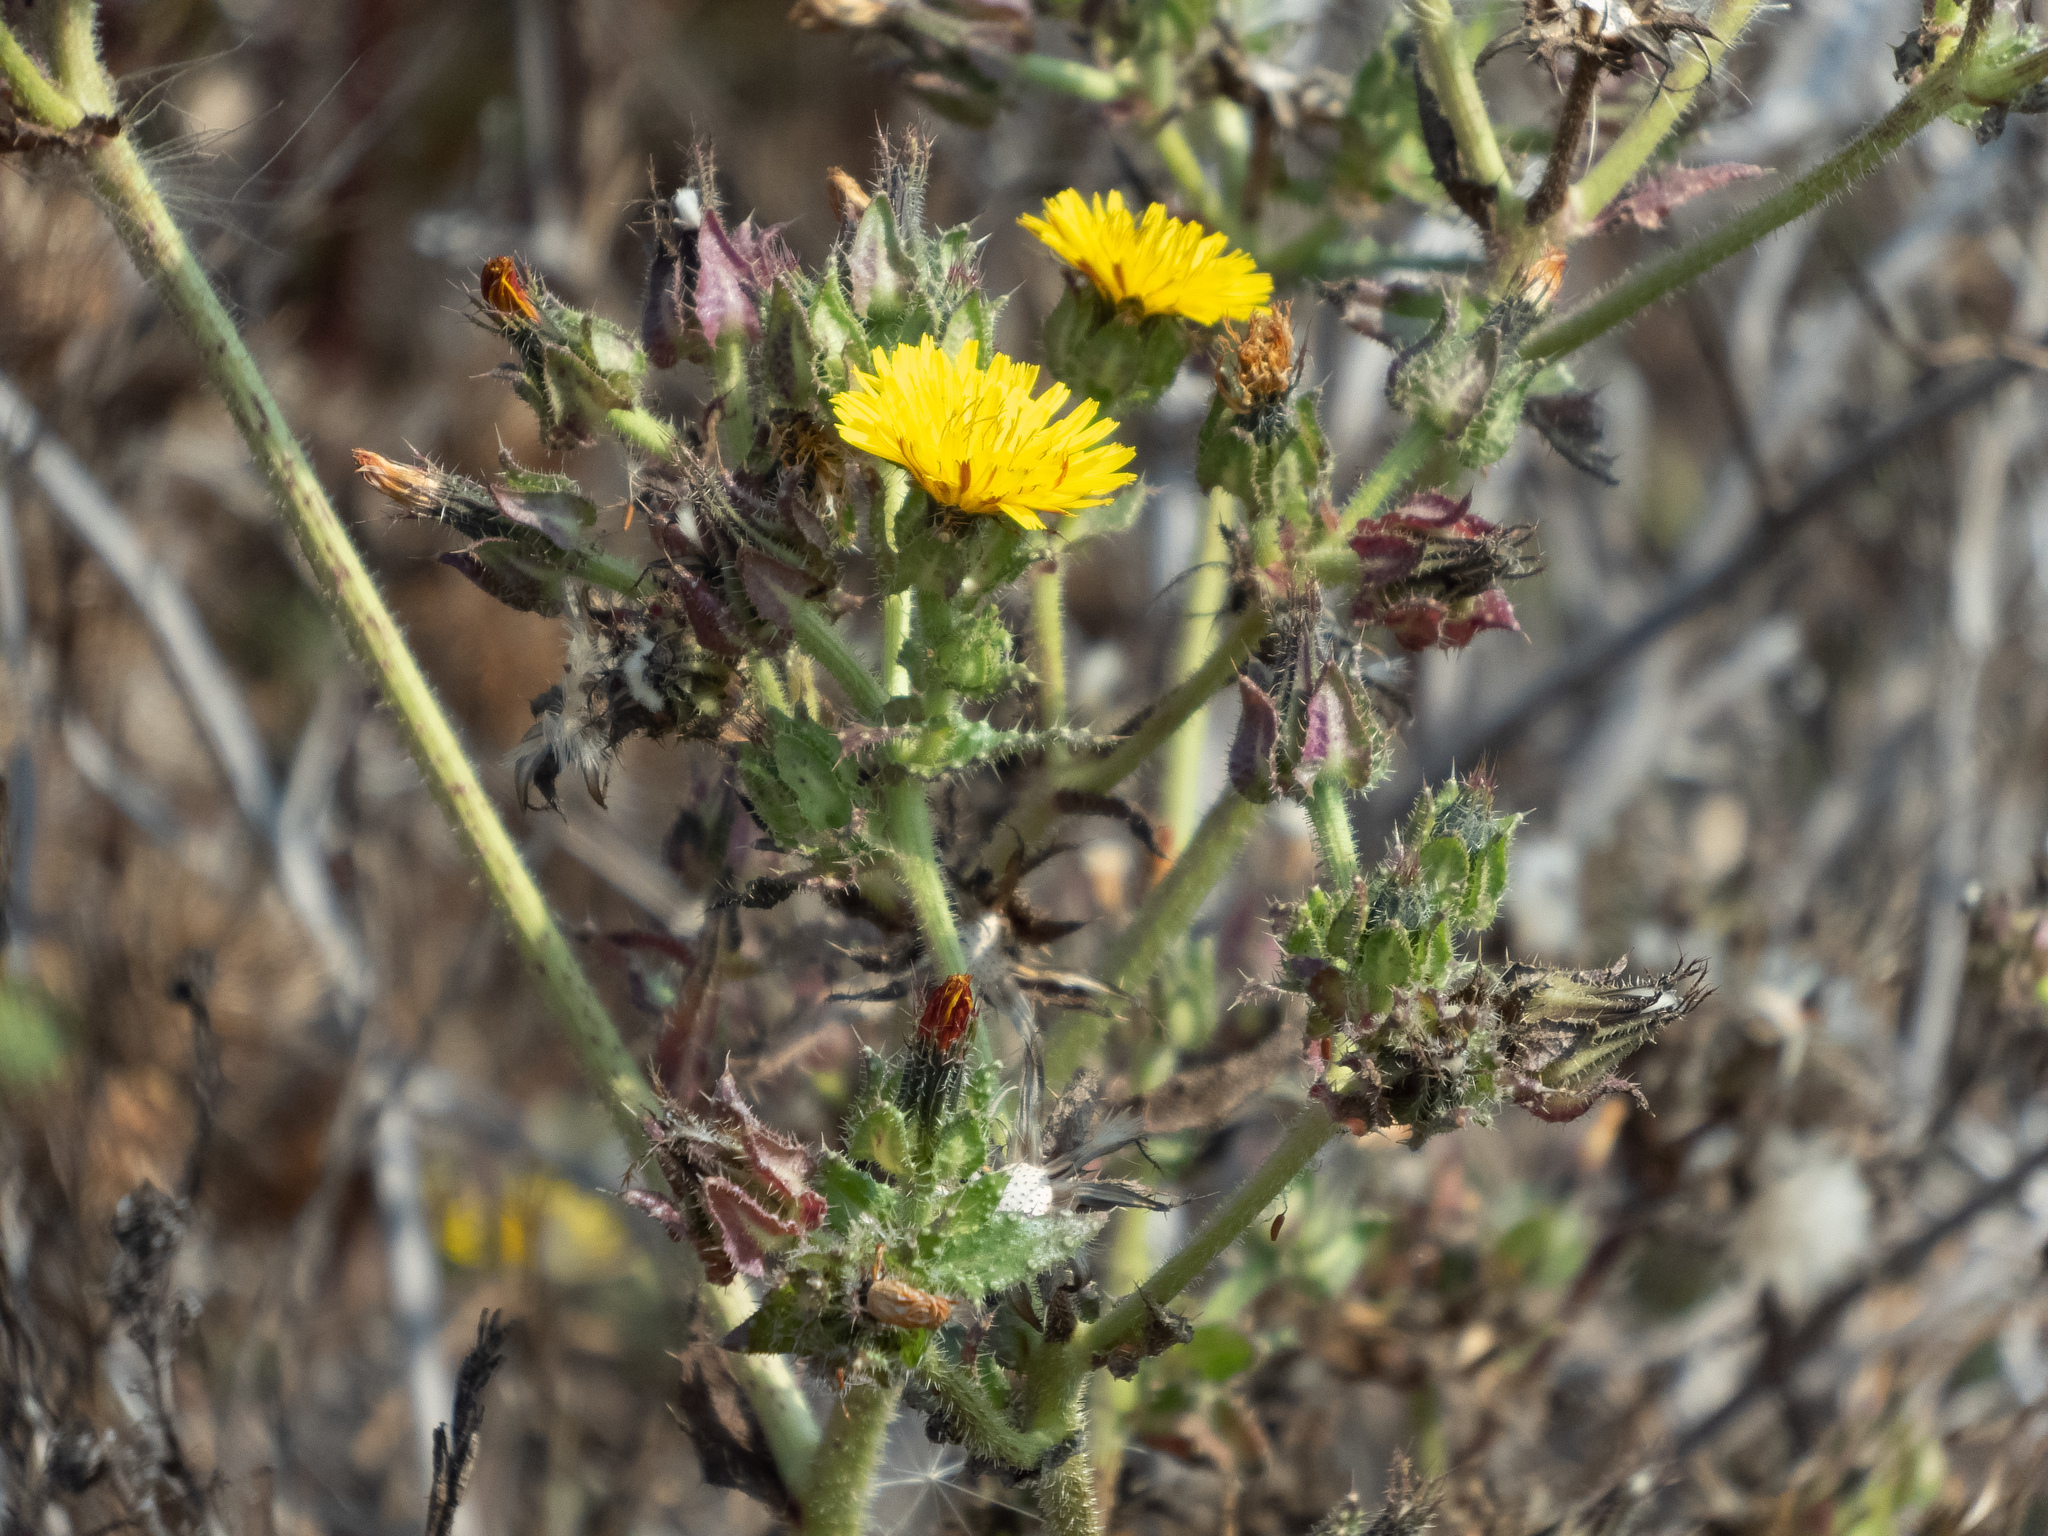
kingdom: Plantae
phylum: Tracheophyta
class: Magnoliopsida
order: Asterales
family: Asteraceae
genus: Helminthotheca
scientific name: Helminthotheca echioides
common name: Ox-tongue
